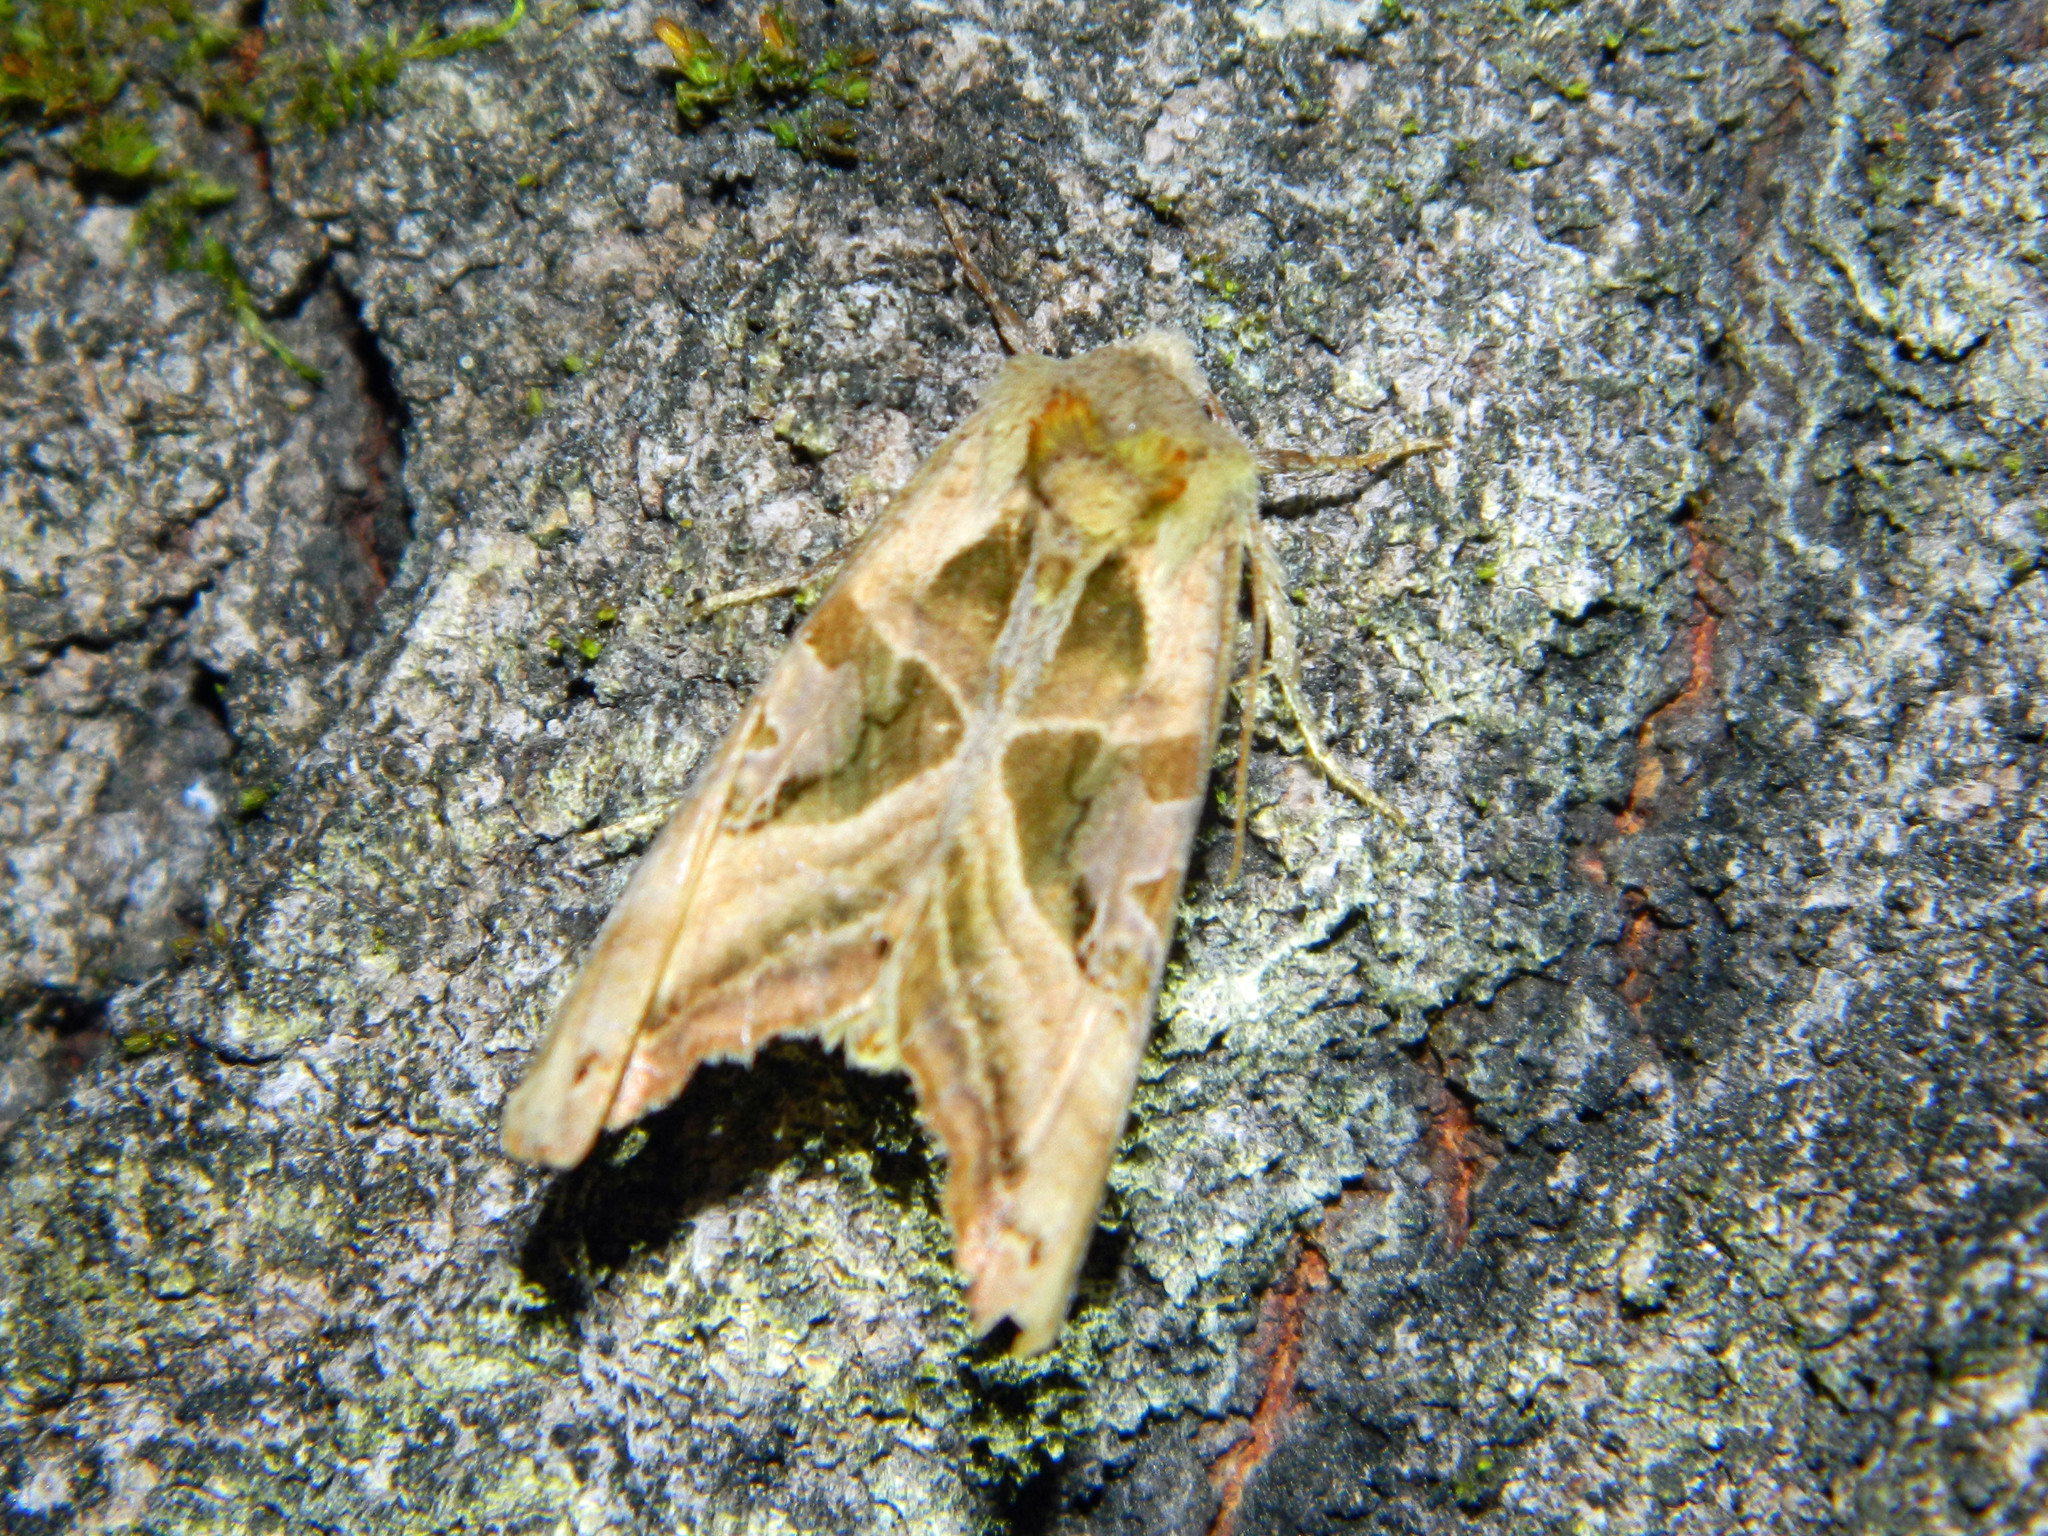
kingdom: Animalia
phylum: Arthropoda
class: Insecta
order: Lepidoptera
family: Noctuidae
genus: Phlogophora
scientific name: Phlogophora iris
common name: Olive angle shades
